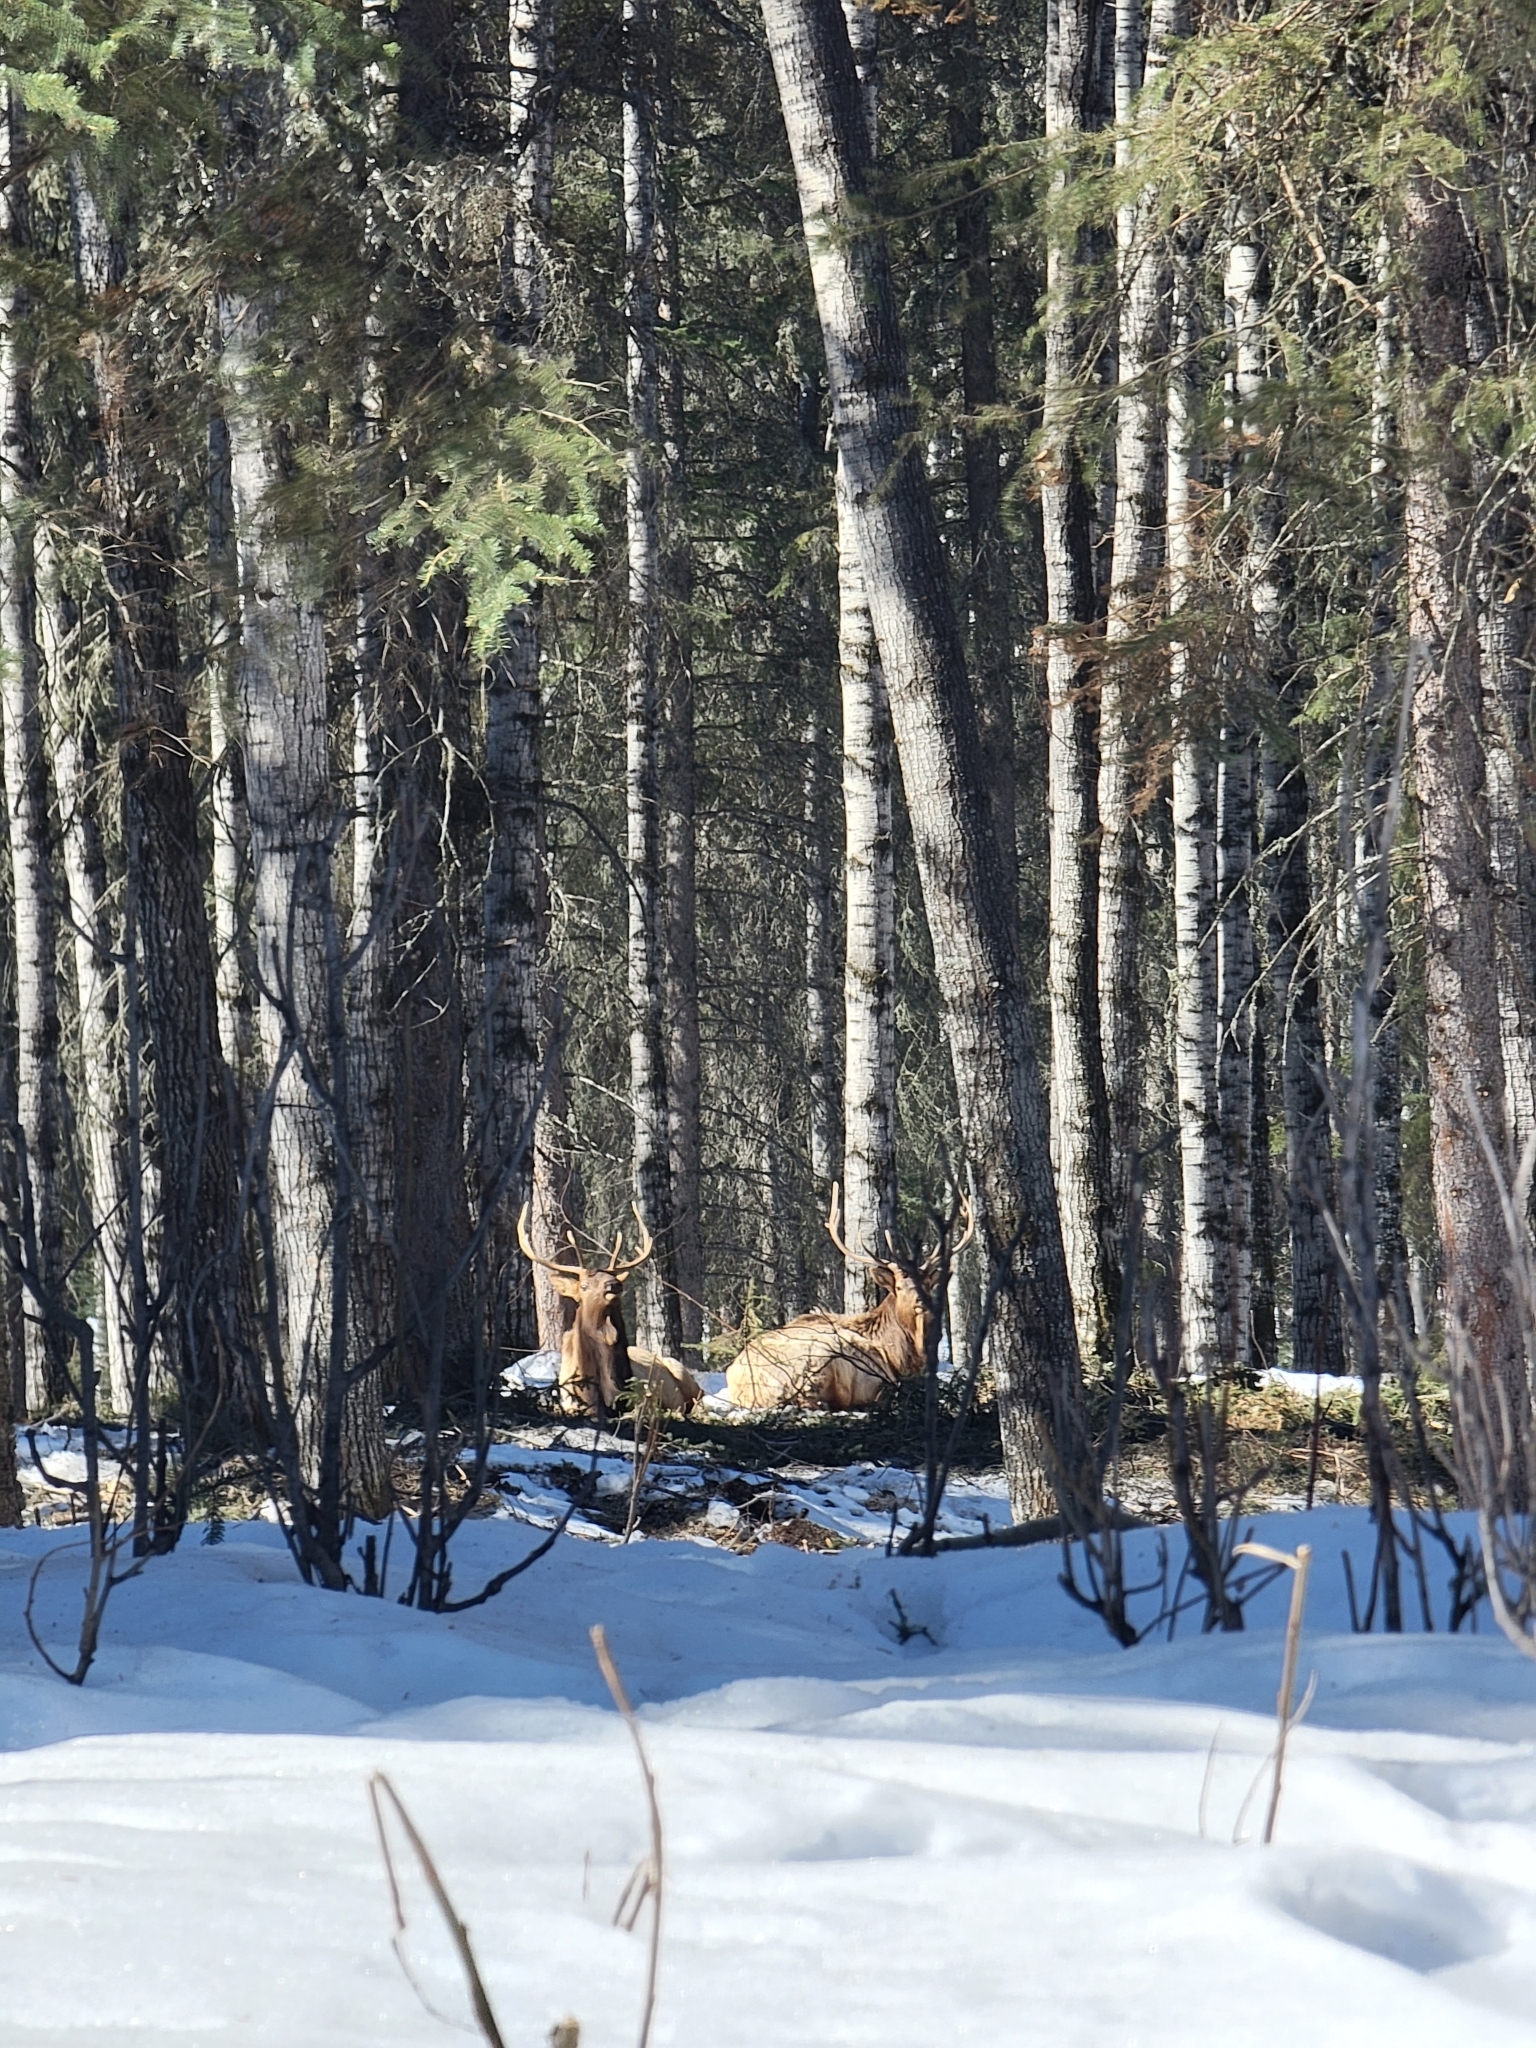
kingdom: Animalia
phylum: Chordata
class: Mammalia
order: Artiodactyla
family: Cervidae
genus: Cervus
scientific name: Cervus elaphus
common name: Red deer
